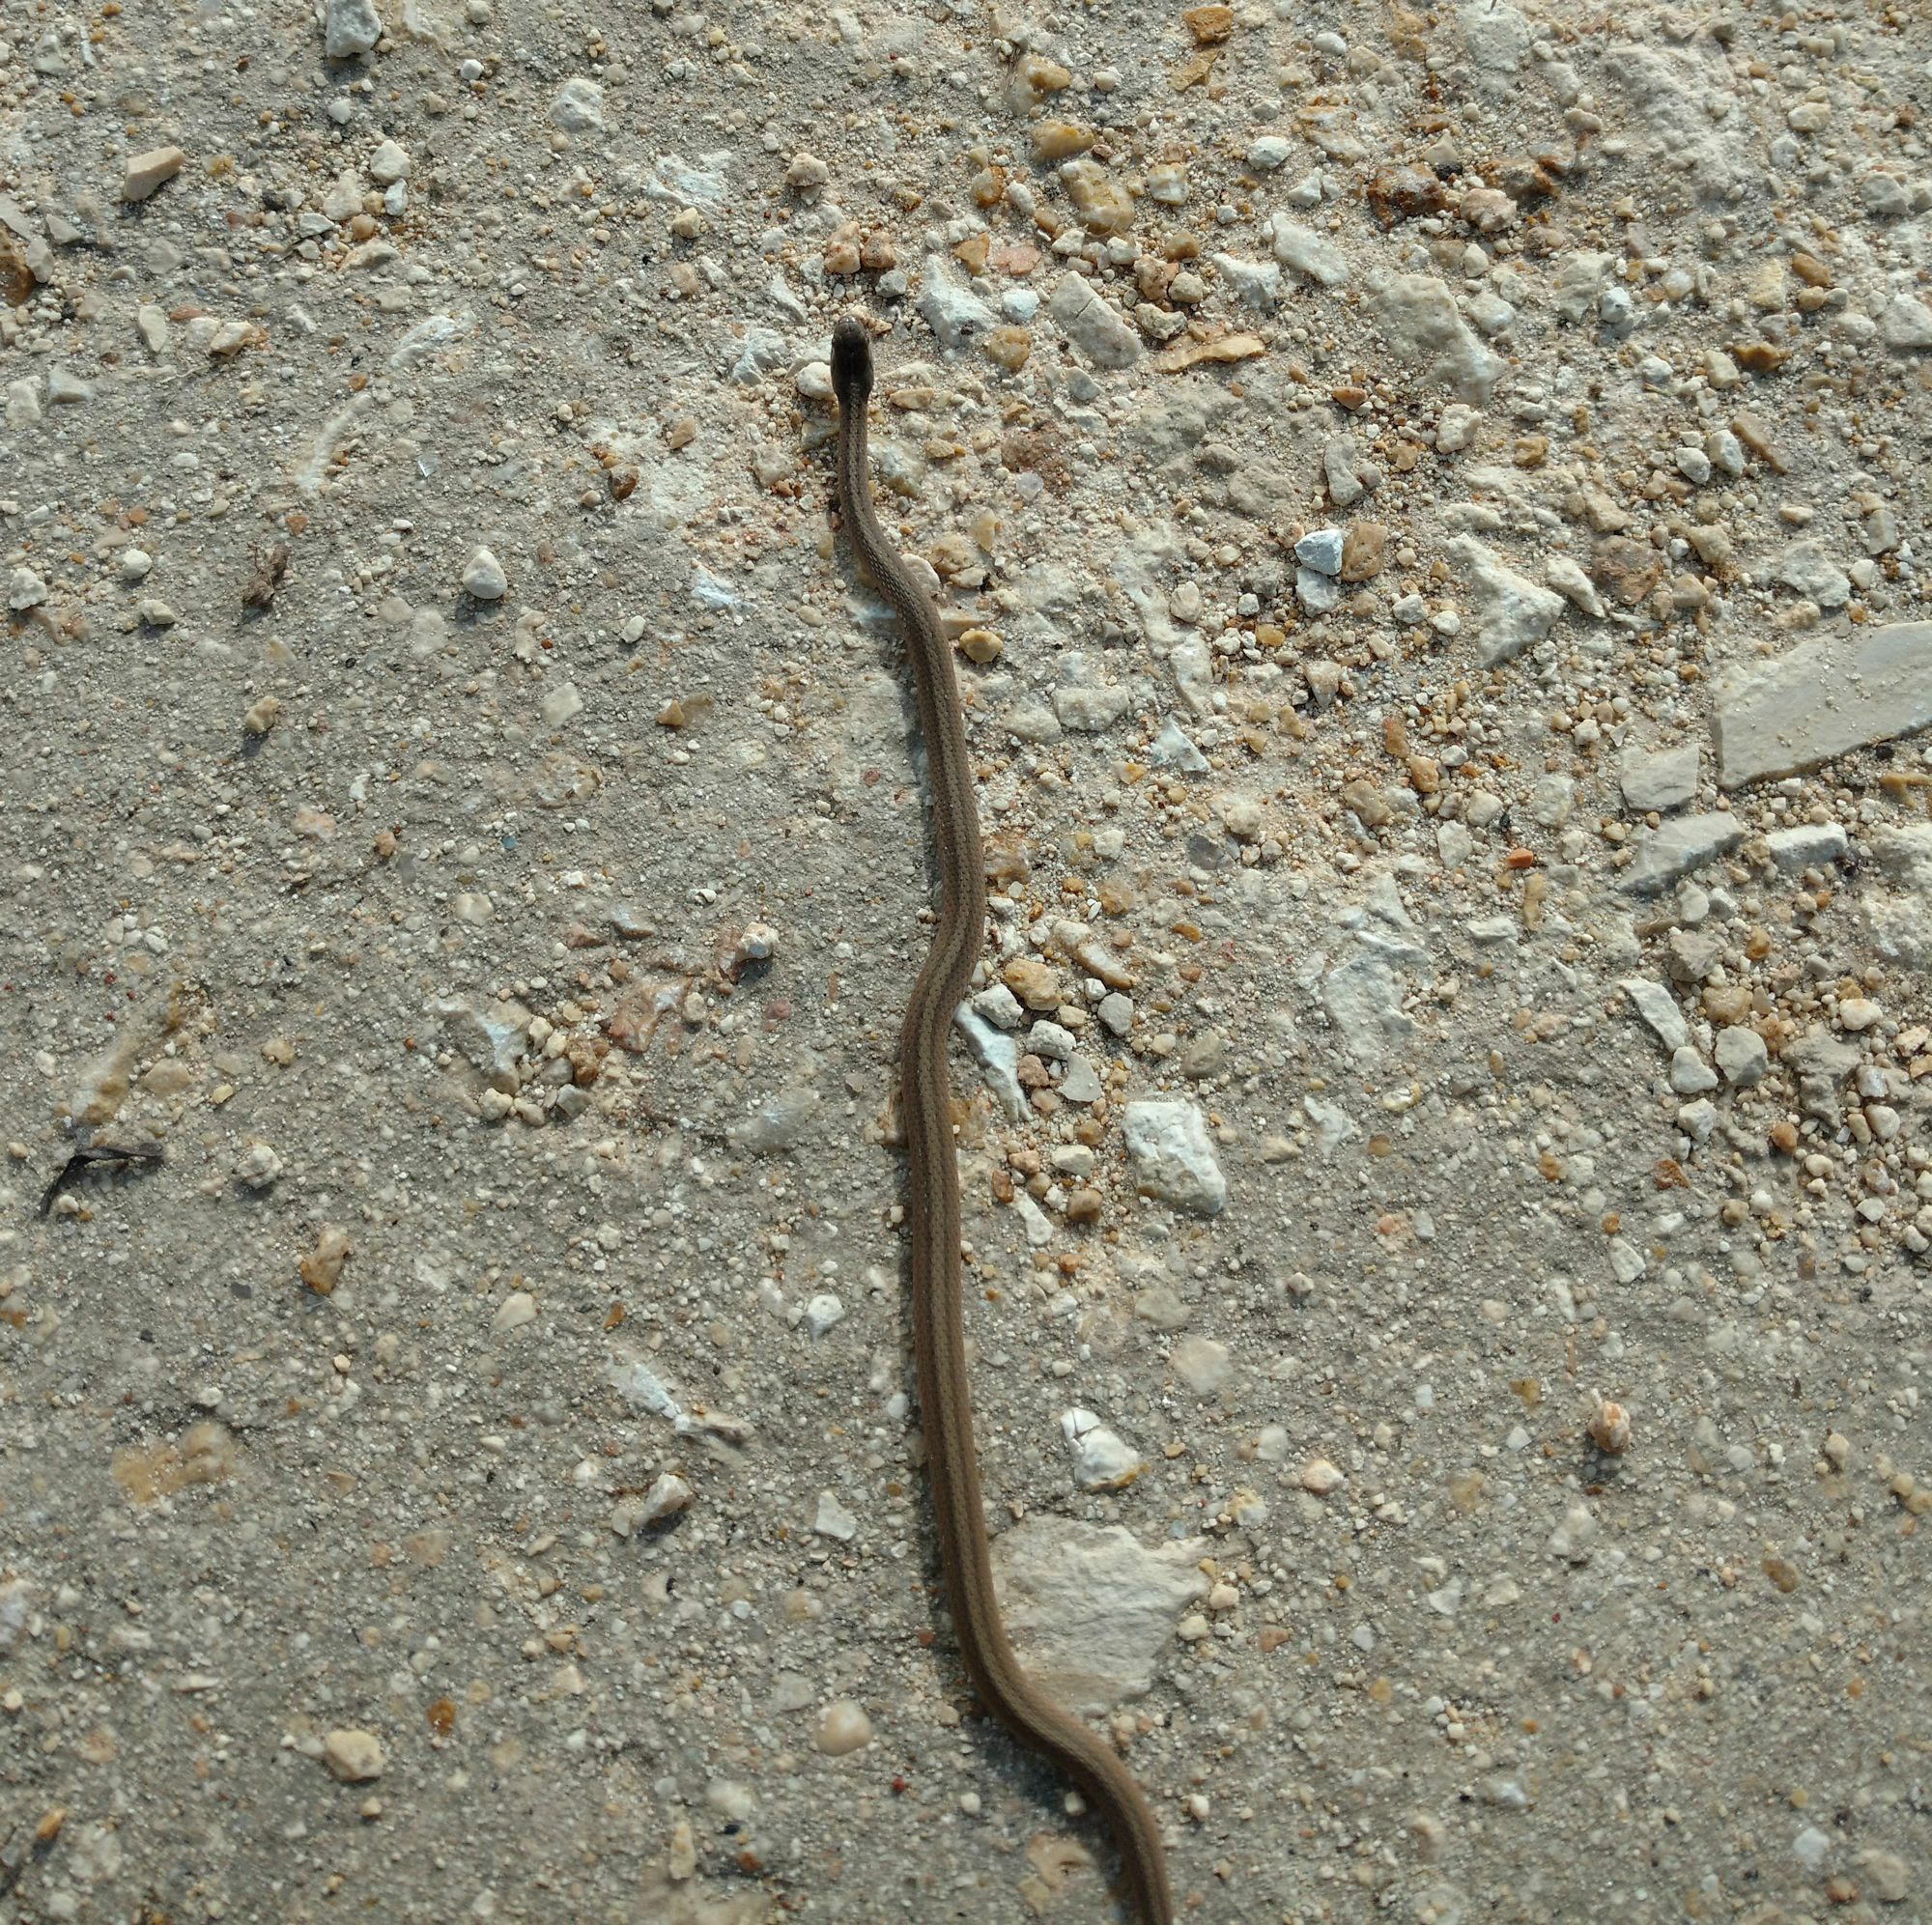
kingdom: Animalia
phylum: Chordata
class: Squamata
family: Colubridae
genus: Storeria
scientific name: Storeria dekayi
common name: (dekay’s) brown snake
